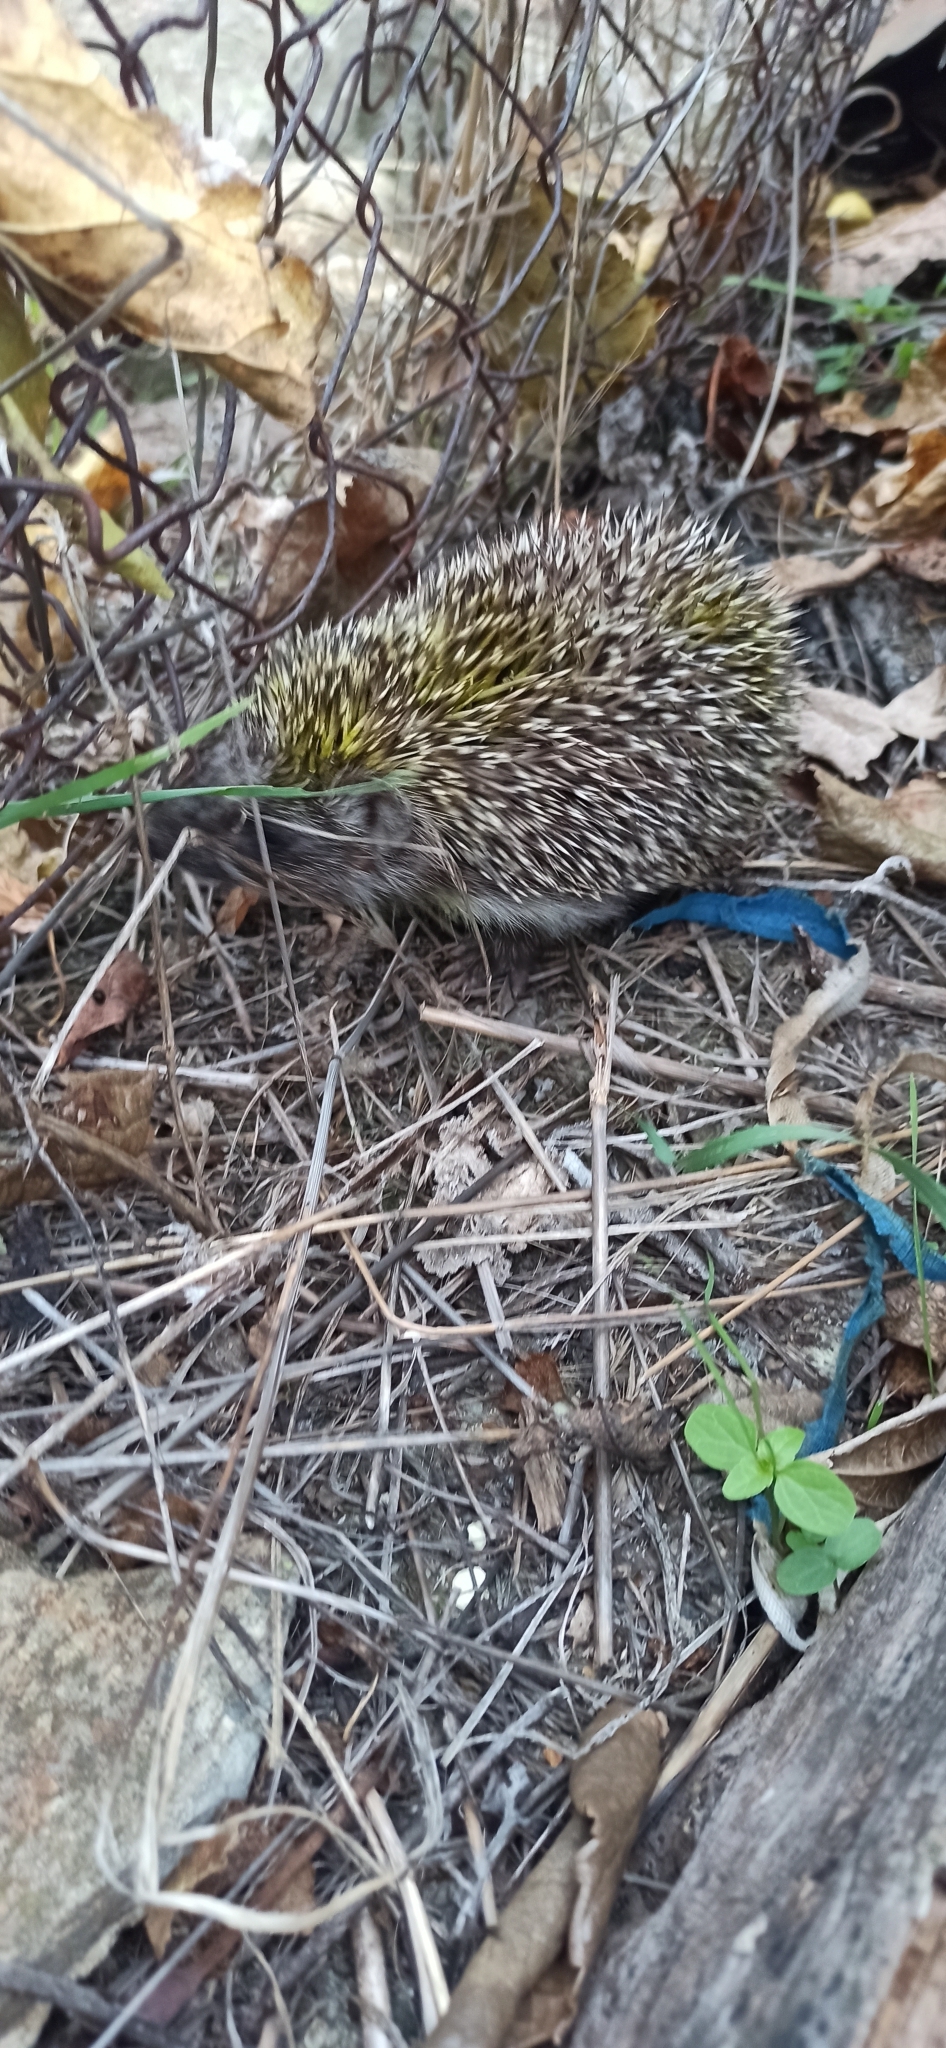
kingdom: Animalia
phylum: Chordata
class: Mammalia
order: Erinaceomorpha
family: Erinaceidae
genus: Erinaceus
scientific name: Erinaceus roumanicus
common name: Northern white-breasted hedgehog
